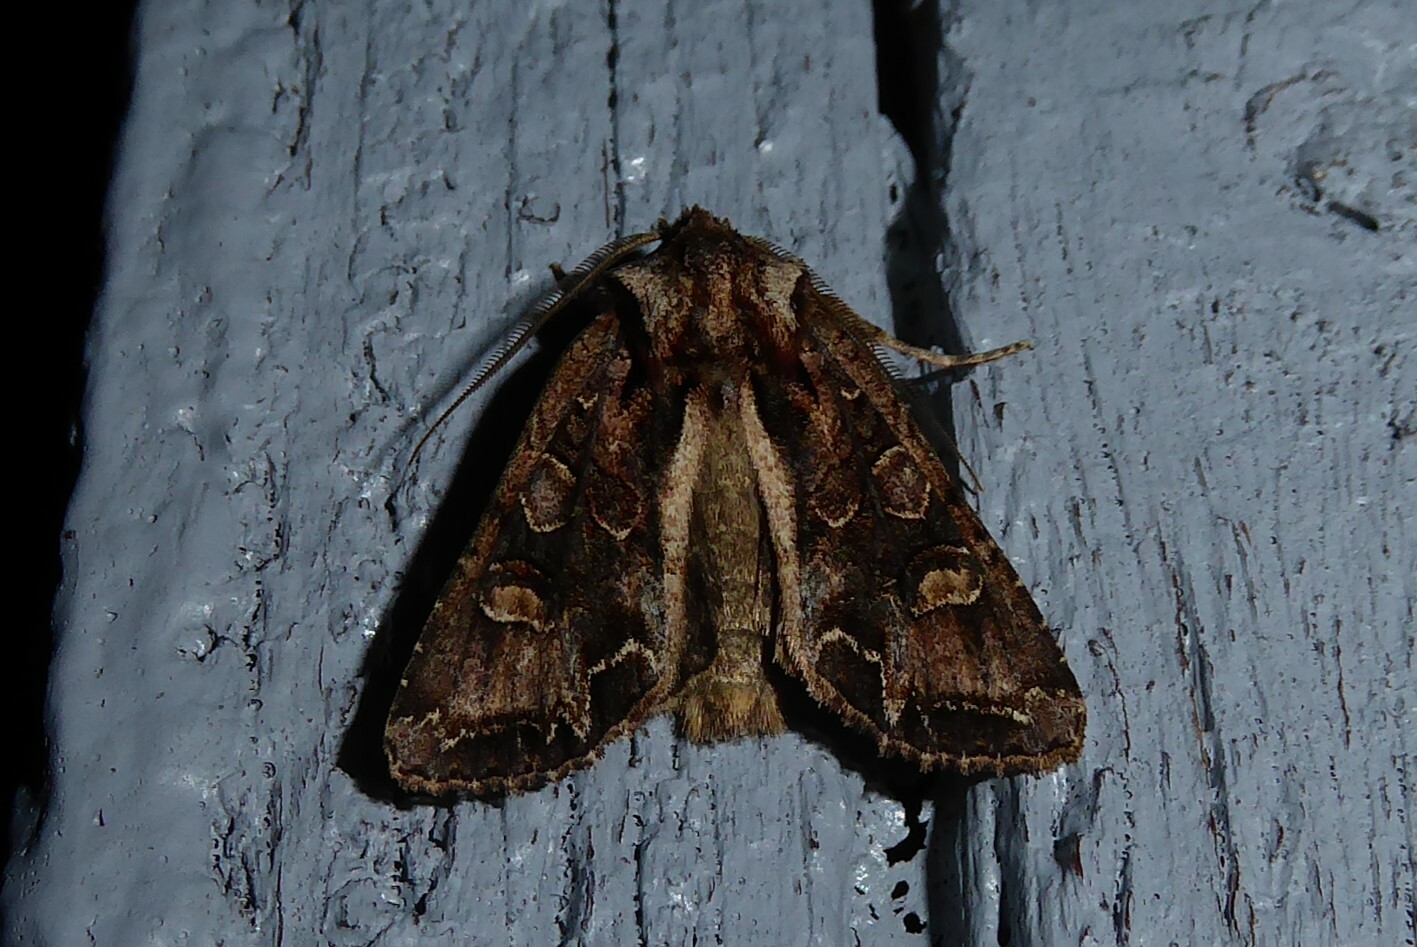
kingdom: Animalia
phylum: Arthropoda
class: Insecta
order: Lepidoptera
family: Noctuidae
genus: Ichneutica
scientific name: Ichneutica insignis
